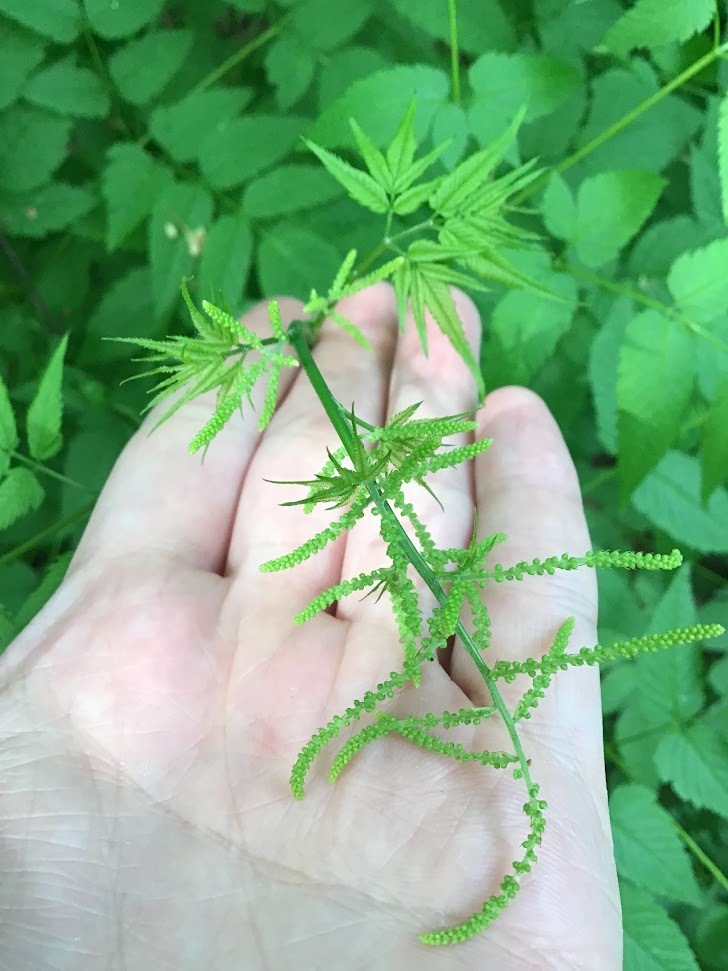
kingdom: Plantae
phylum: Tracheophyta
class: Magnoliopsida
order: Rosales
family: Rosaceae
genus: Aruncus
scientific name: Aruncus dioicus
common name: Buck's-beard
